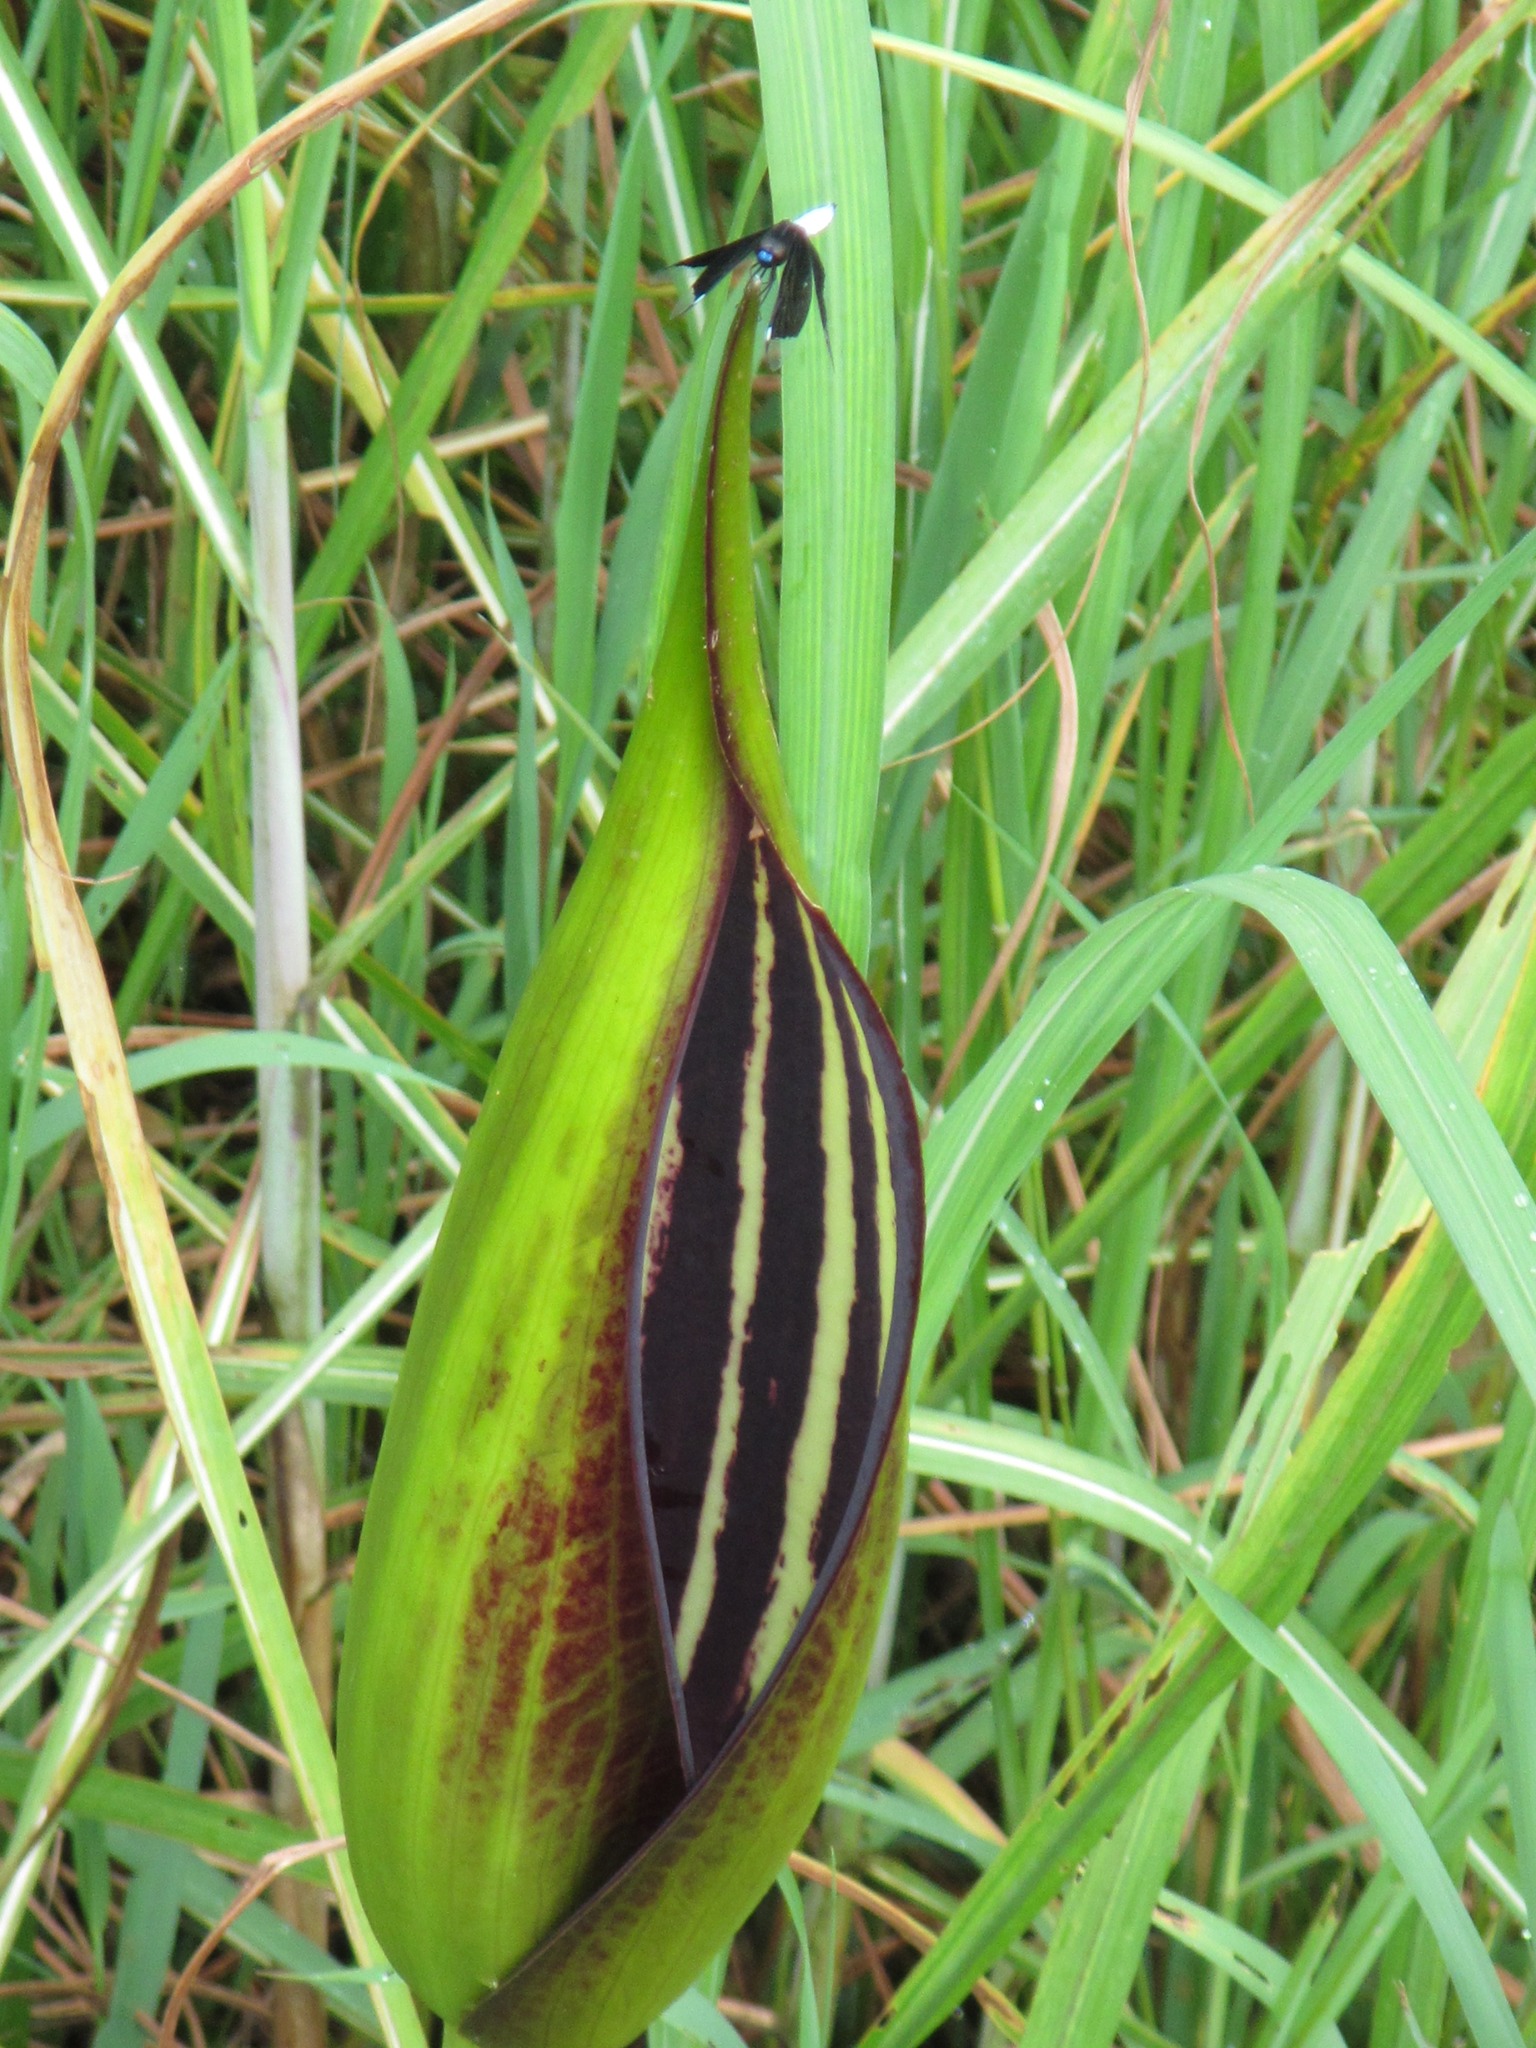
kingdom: Animalia
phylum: Arthropoda
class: Insecta
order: Odonata
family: Libellulidae
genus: Palpopleura
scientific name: Palpopleura lucia
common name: Lucia widow
